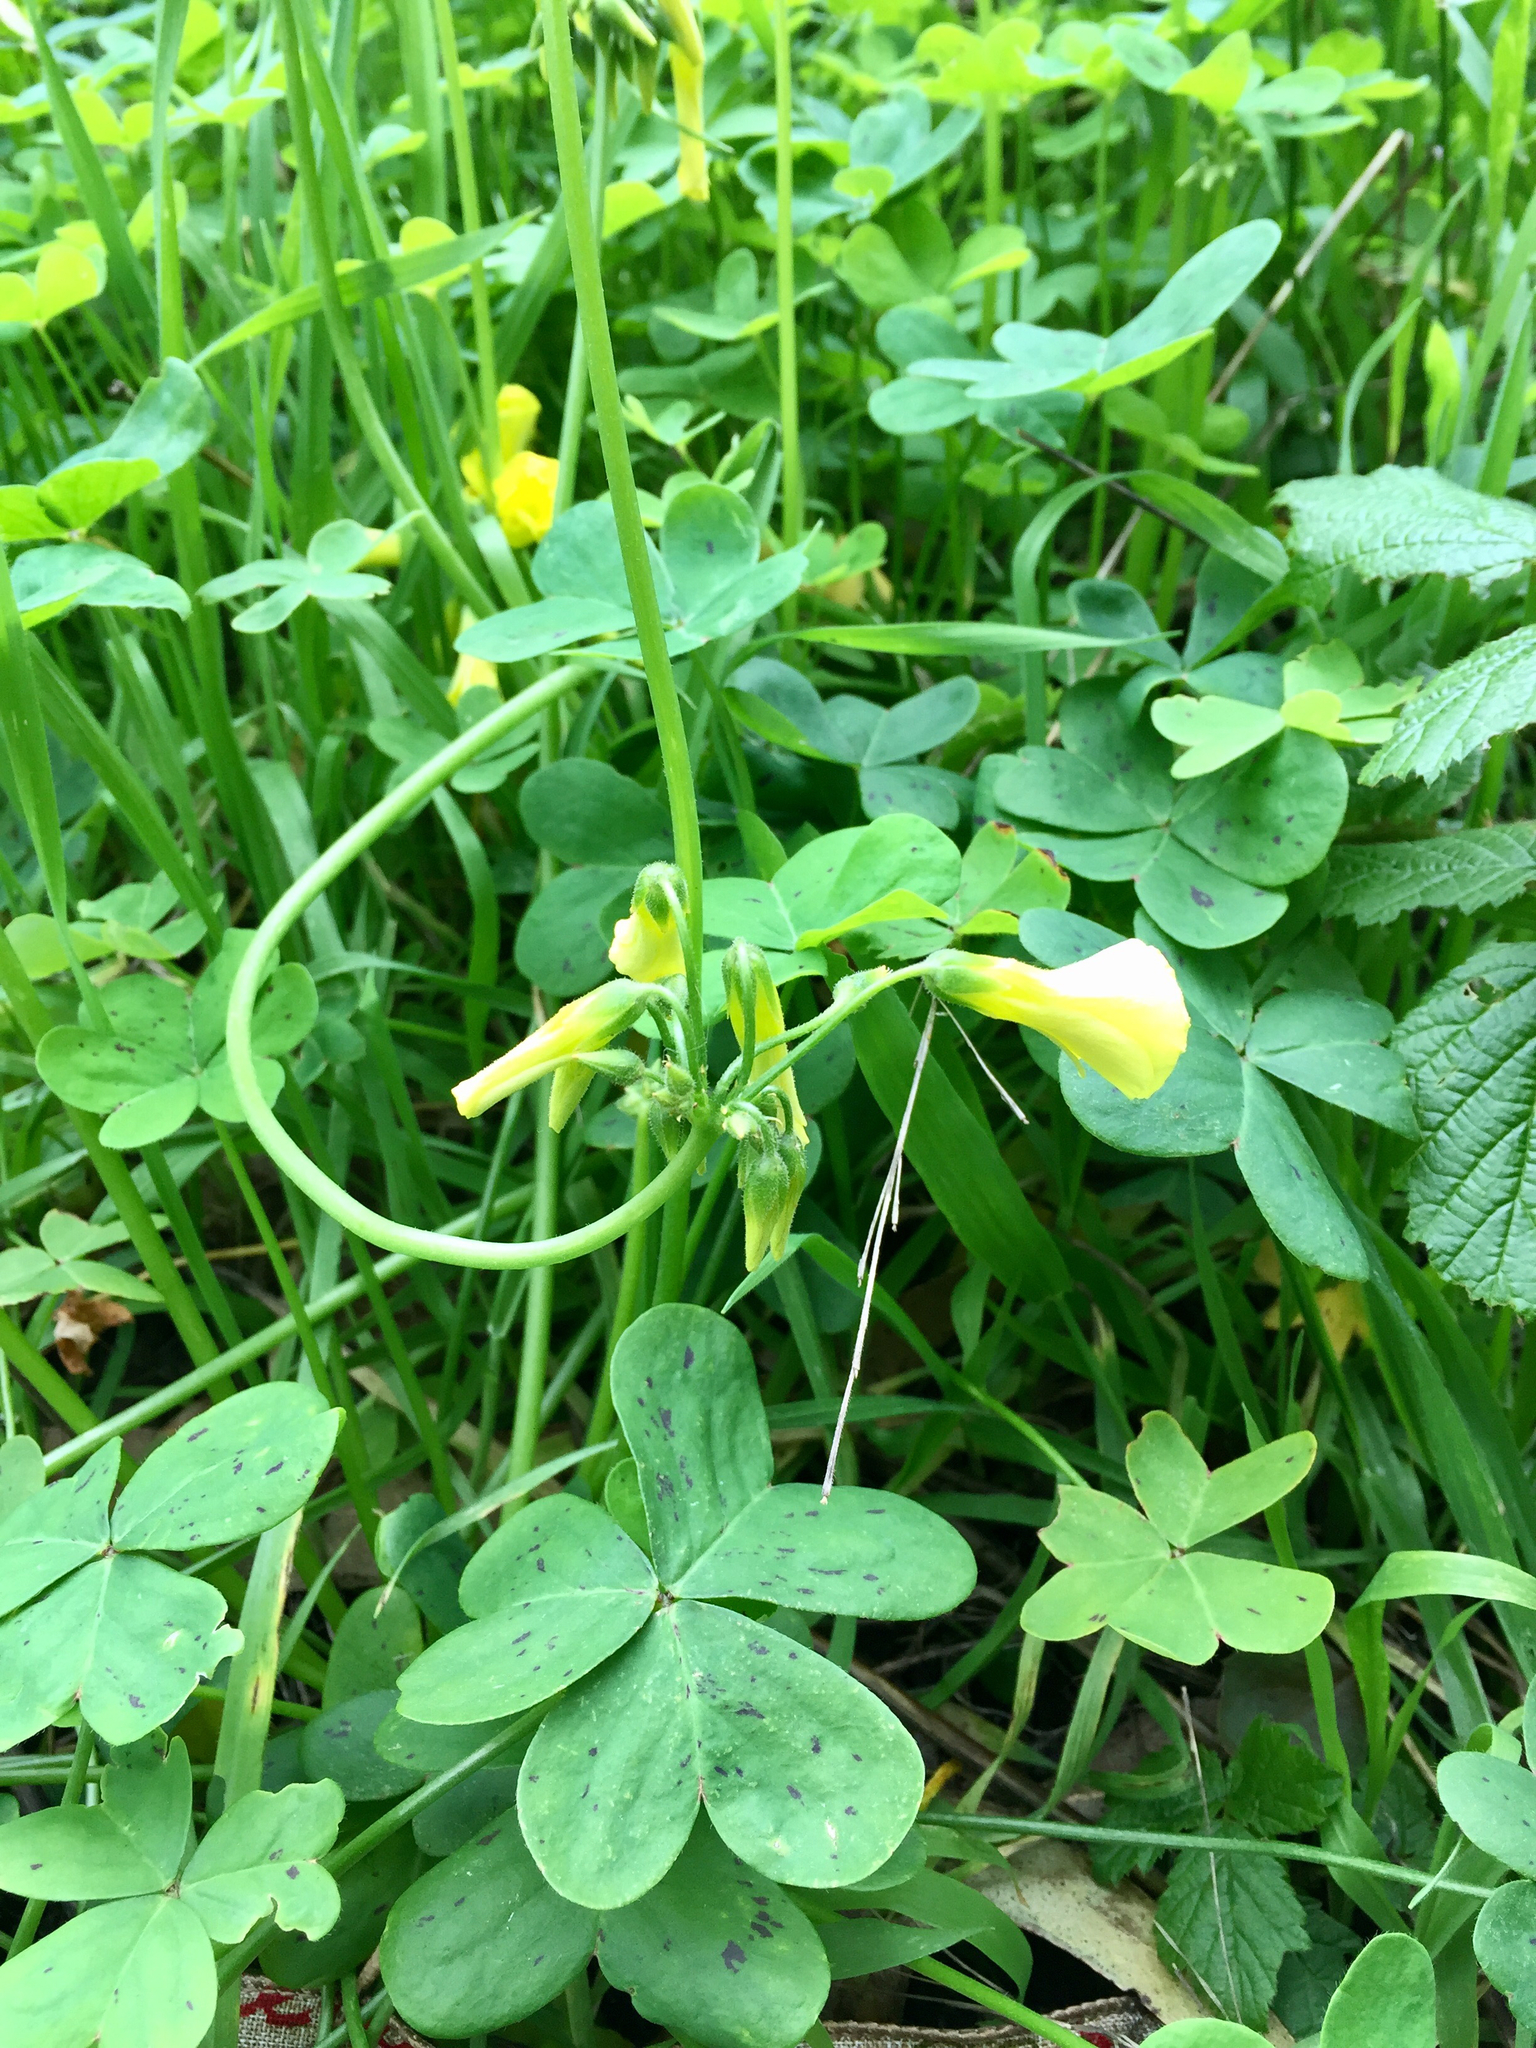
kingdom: Plantae
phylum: Tracheophyta
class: Magnoliopsida
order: Oxalidales
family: Oxalidaceae
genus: Oxalis
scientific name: Oxalis pes-caprae
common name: Bermuda-buttercup
